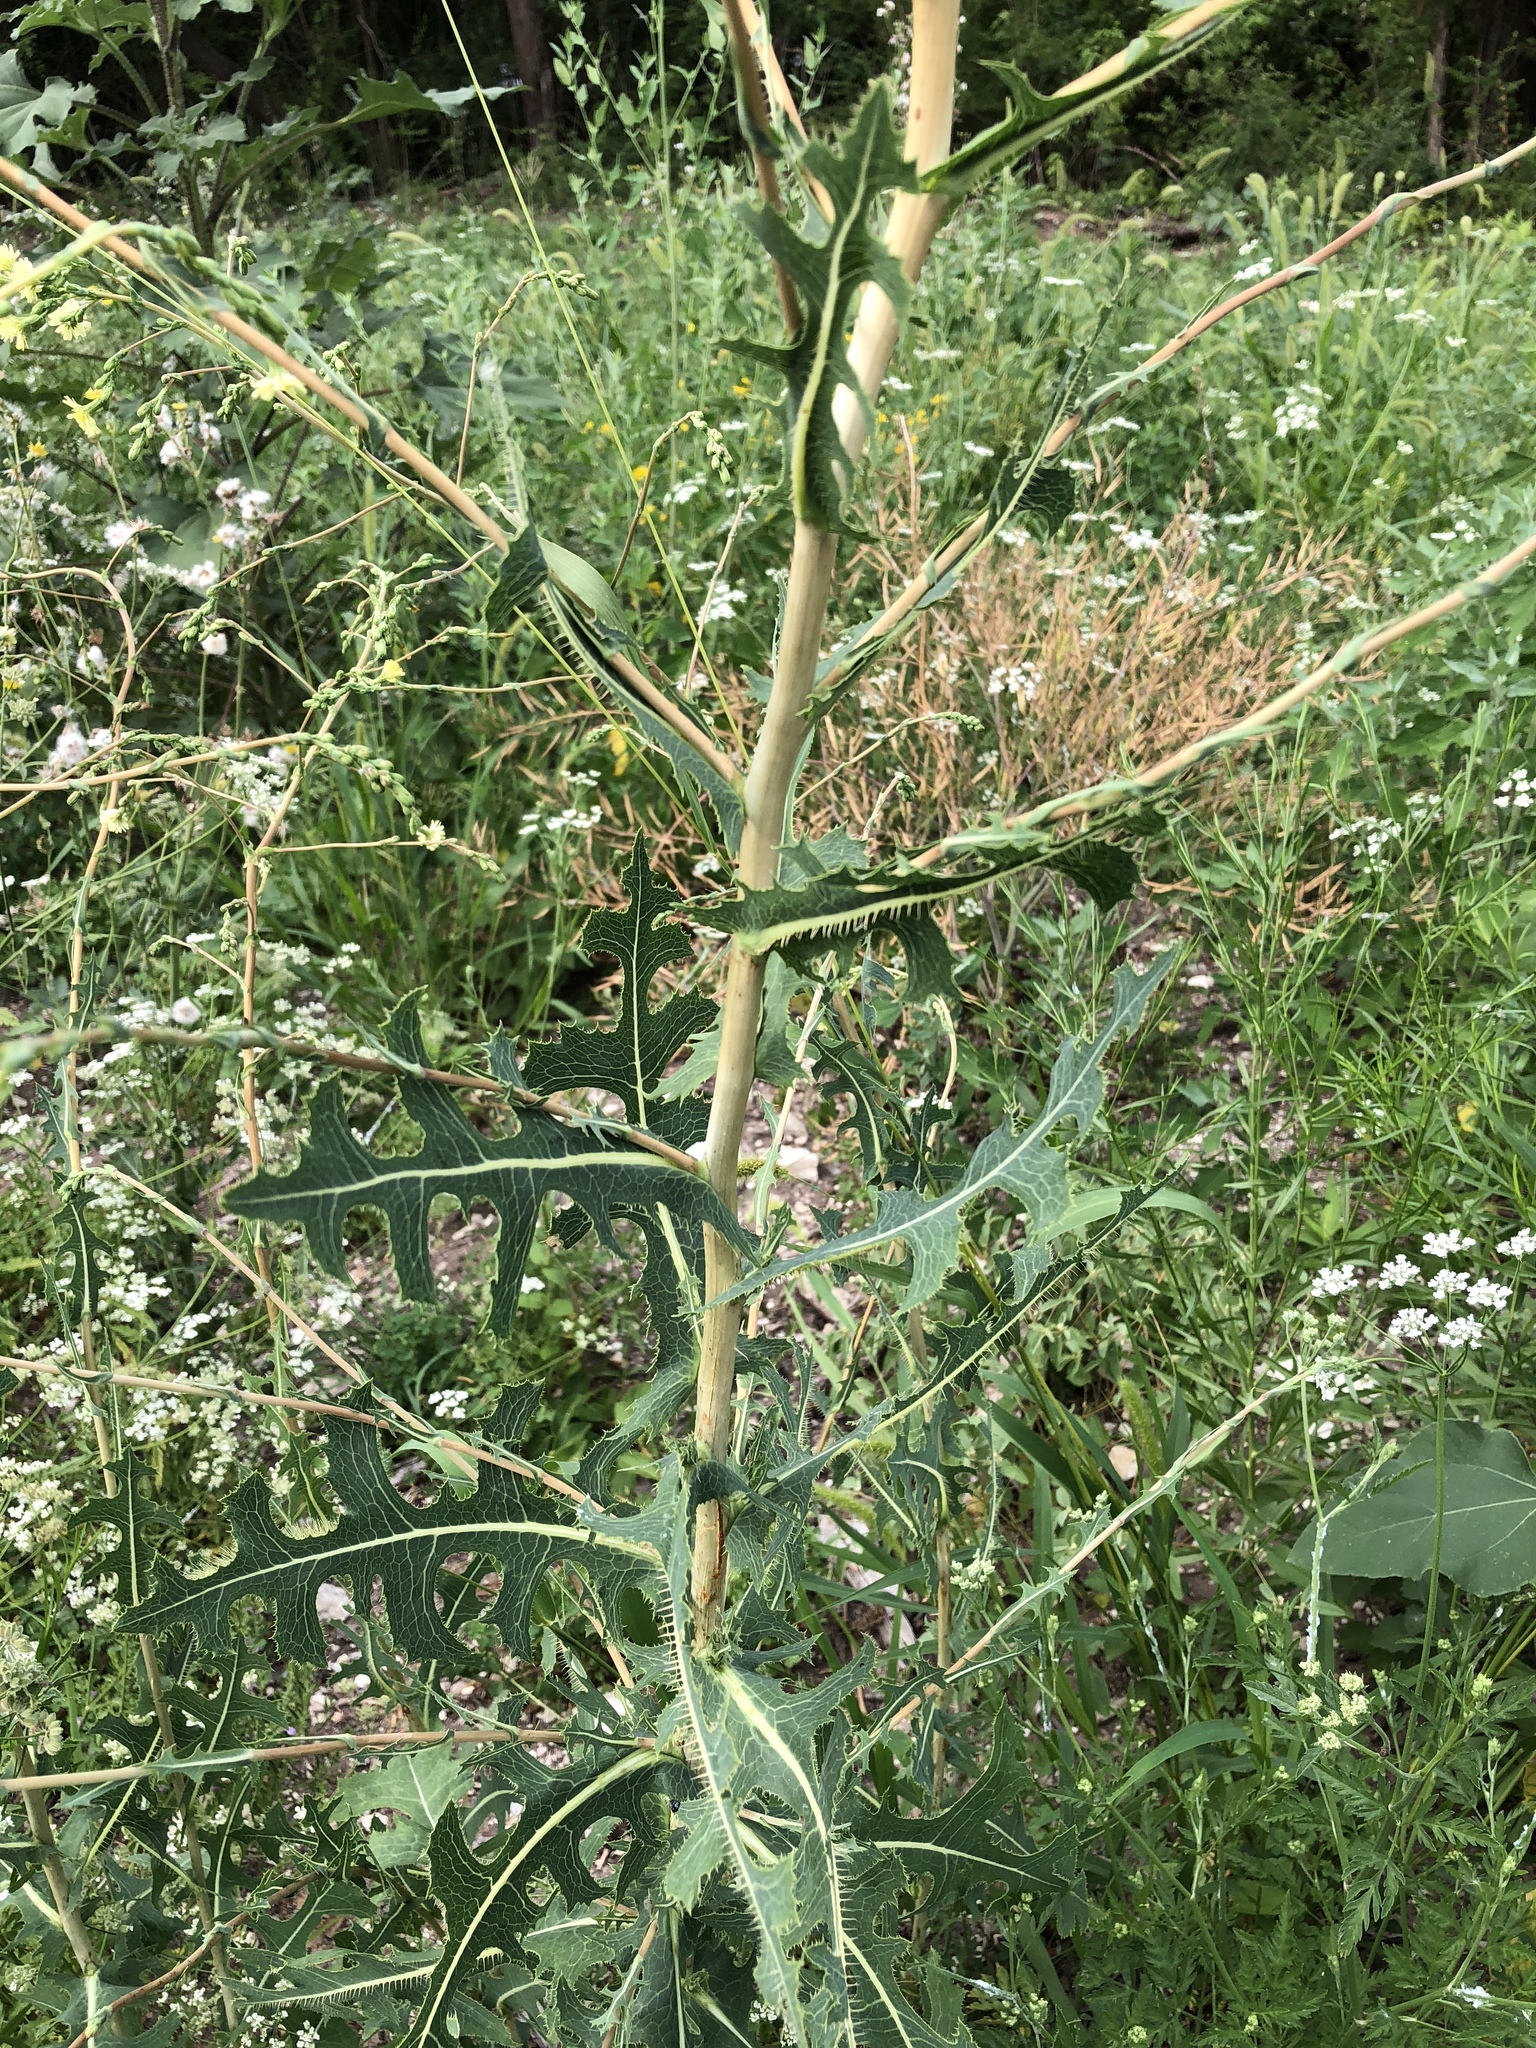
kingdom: Plantae
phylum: Tracheophyta
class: Magnoliopsida
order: Asterales
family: Asteraceae
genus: Lactuca
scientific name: Lactuca serriola
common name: Prickly lettuce
